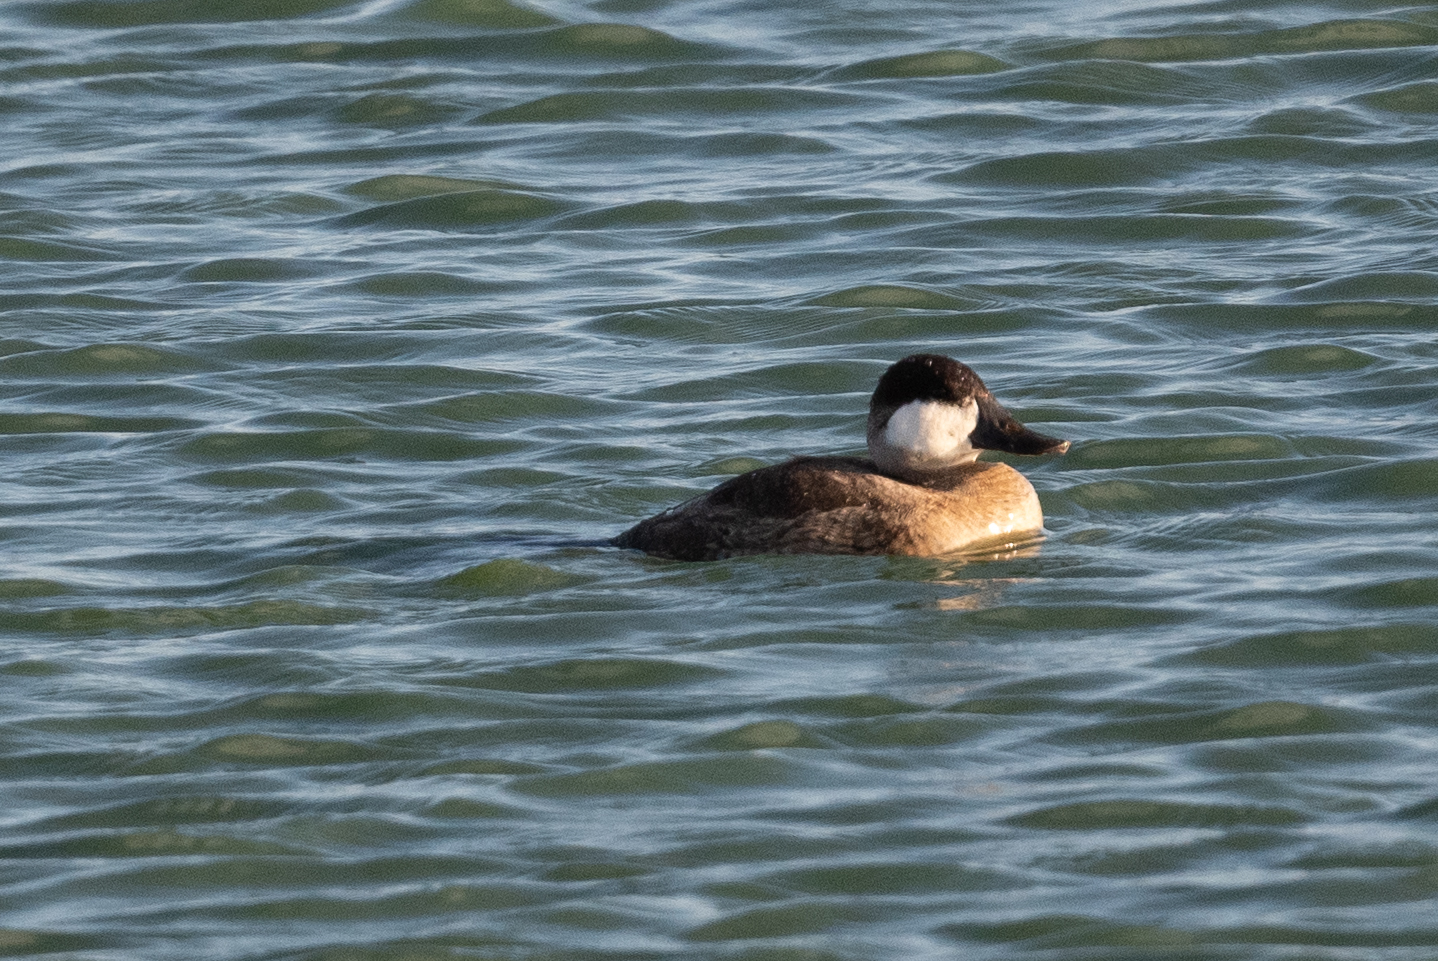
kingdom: Animalia
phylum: Chordata
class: Aves
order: Anseriformes
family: Anatidae
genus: Oxyura
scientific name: Oxyura jamaicensis
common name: Ruddy duck
